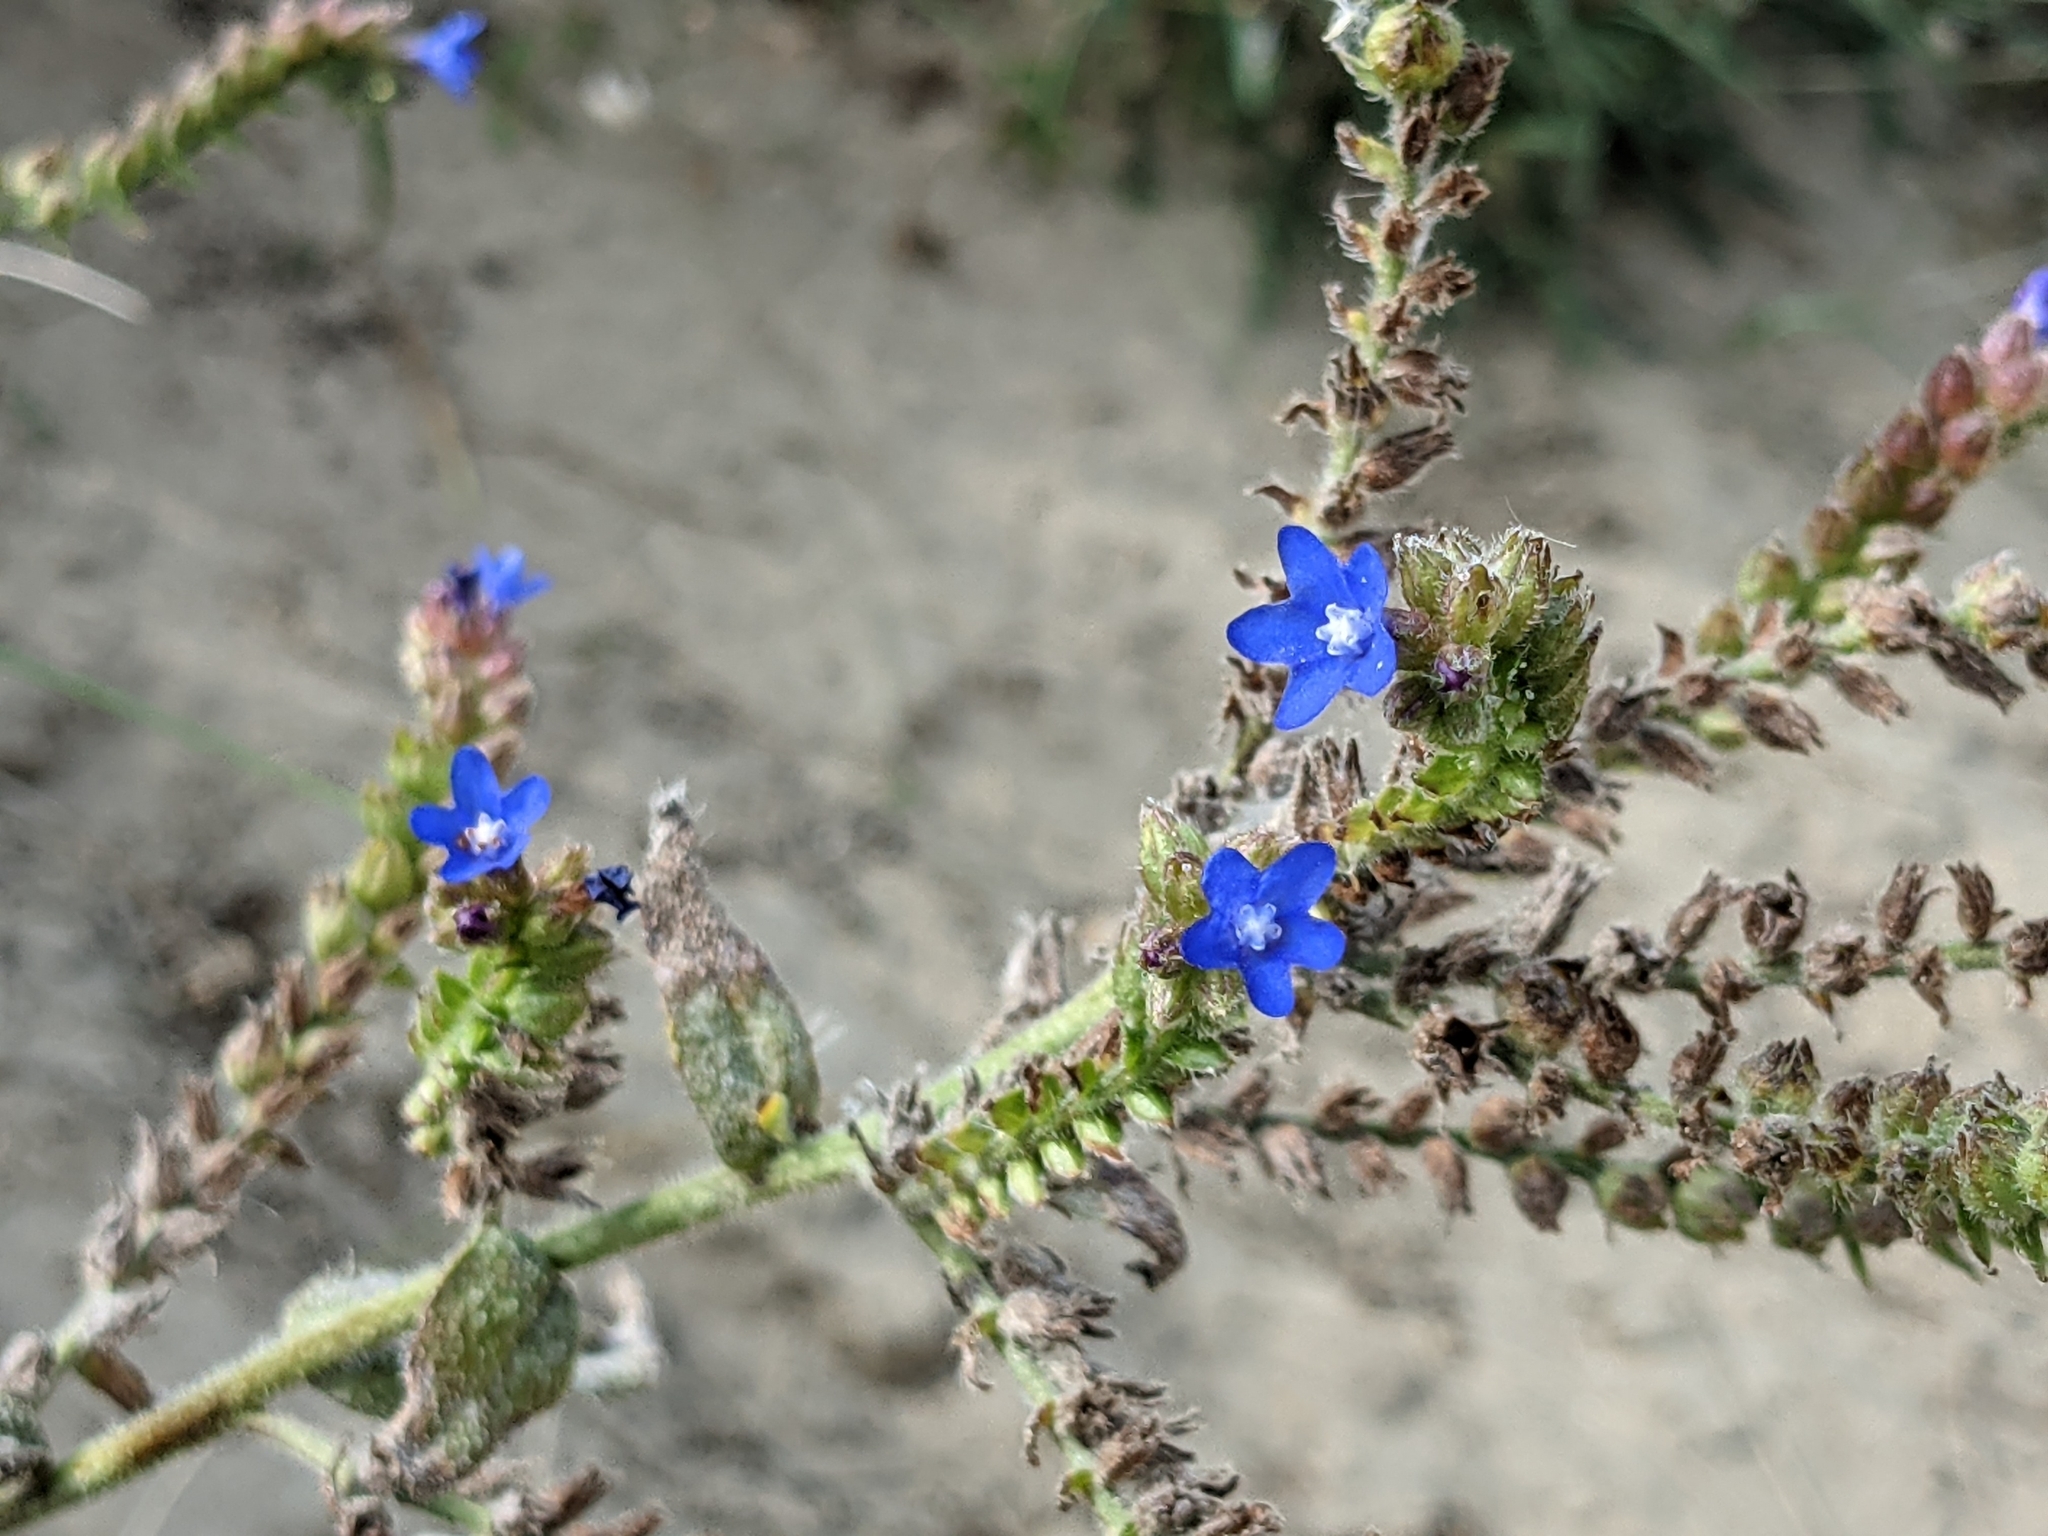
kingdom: Plantae
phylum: Tracheophyta
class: Magnoliopsida
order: Boraginales
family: Boraginaceae
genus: Anchusa
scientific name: Anchusa officinalis
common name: Alkanet
